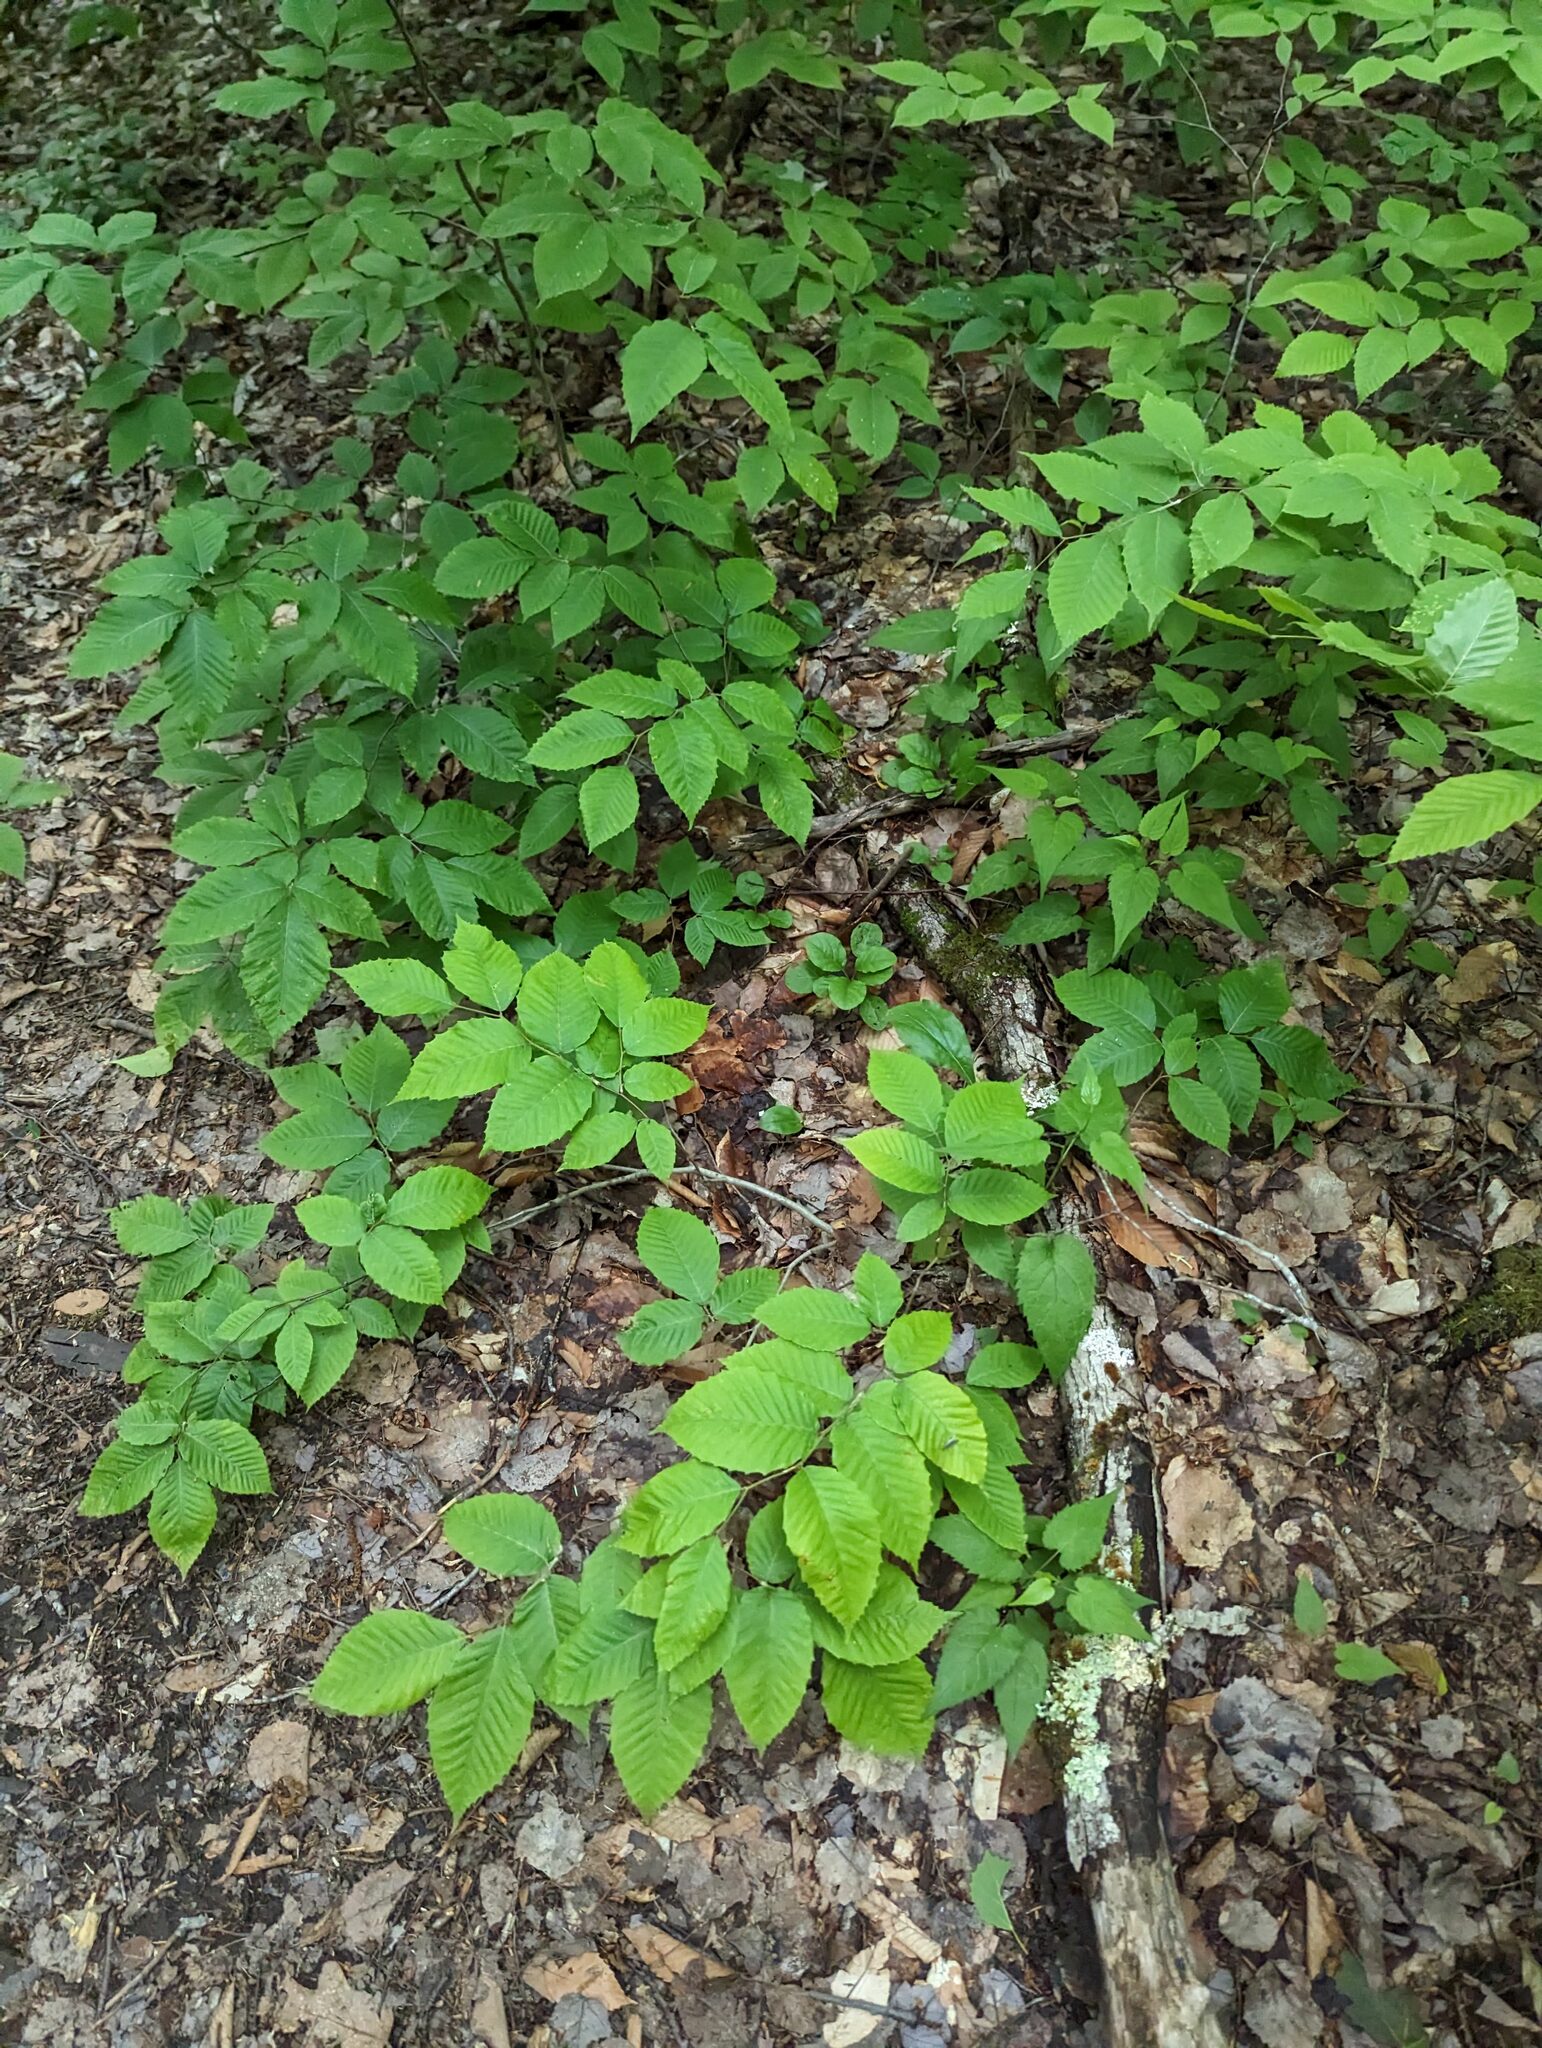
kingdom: Plantae
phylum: Tracheophyta
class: Magnoliopsida
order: Fagales
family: Fagaceae
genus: Fagus
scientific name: Fagus grandifolia
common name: American beech
